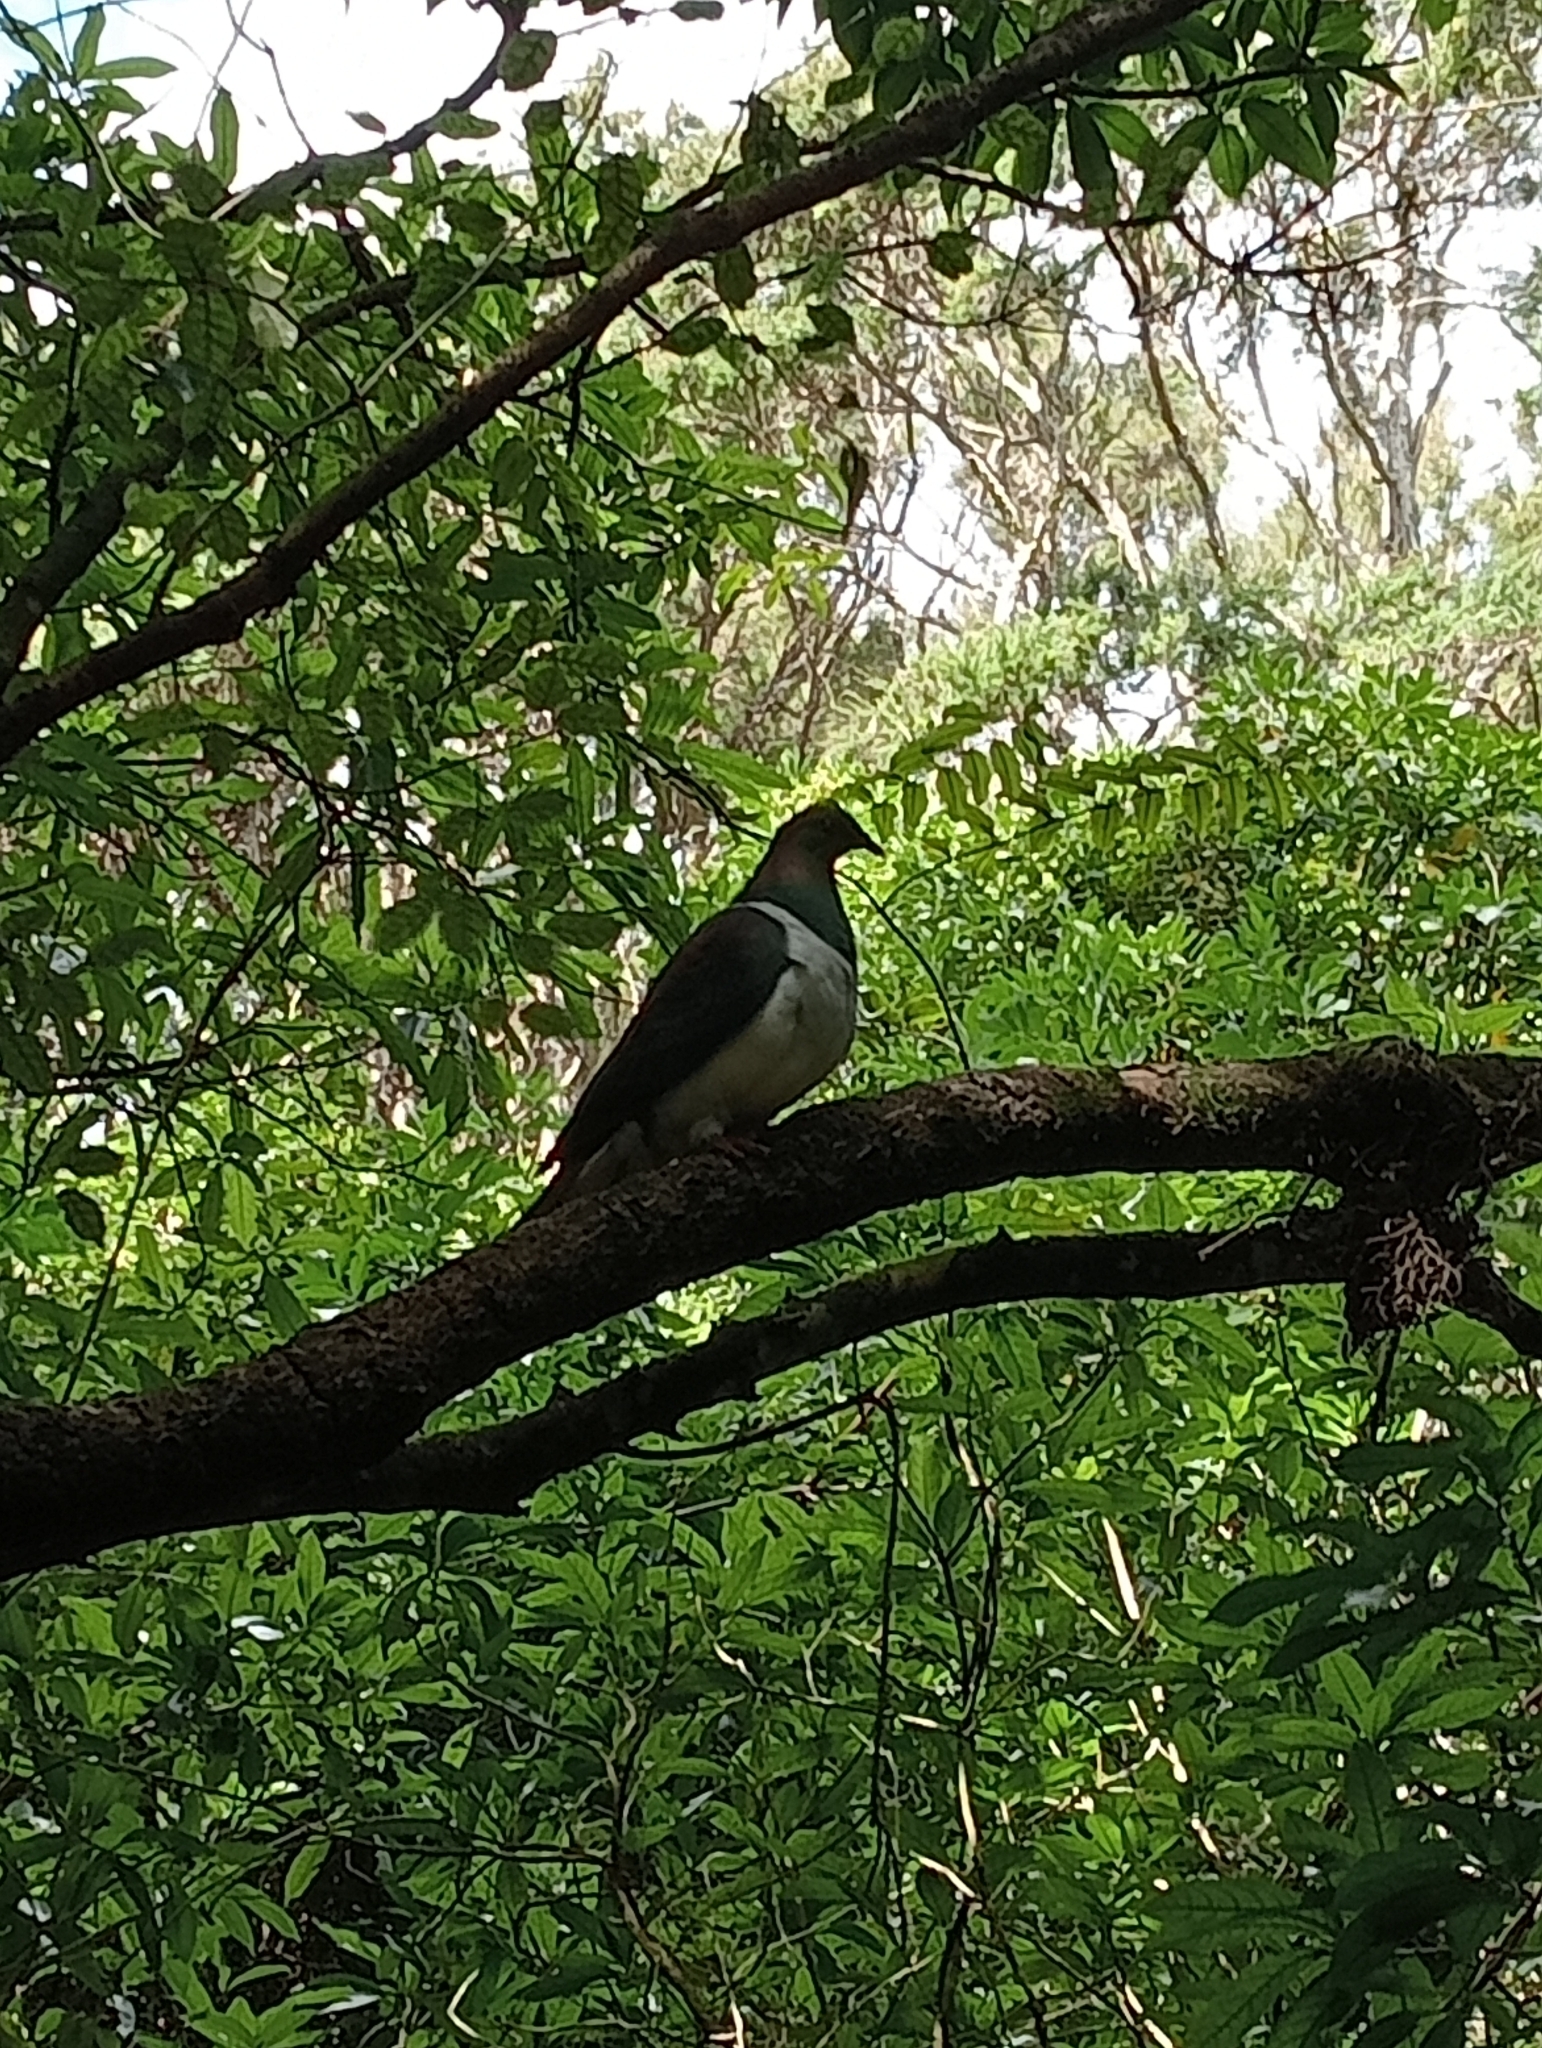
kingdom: Animalia
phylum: Chordata
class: Aves
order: Columbiformes
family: Columbidae
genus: Hemiphaga
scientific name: Hemiphaga novaeseelandiae
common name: New zealand pigeon
